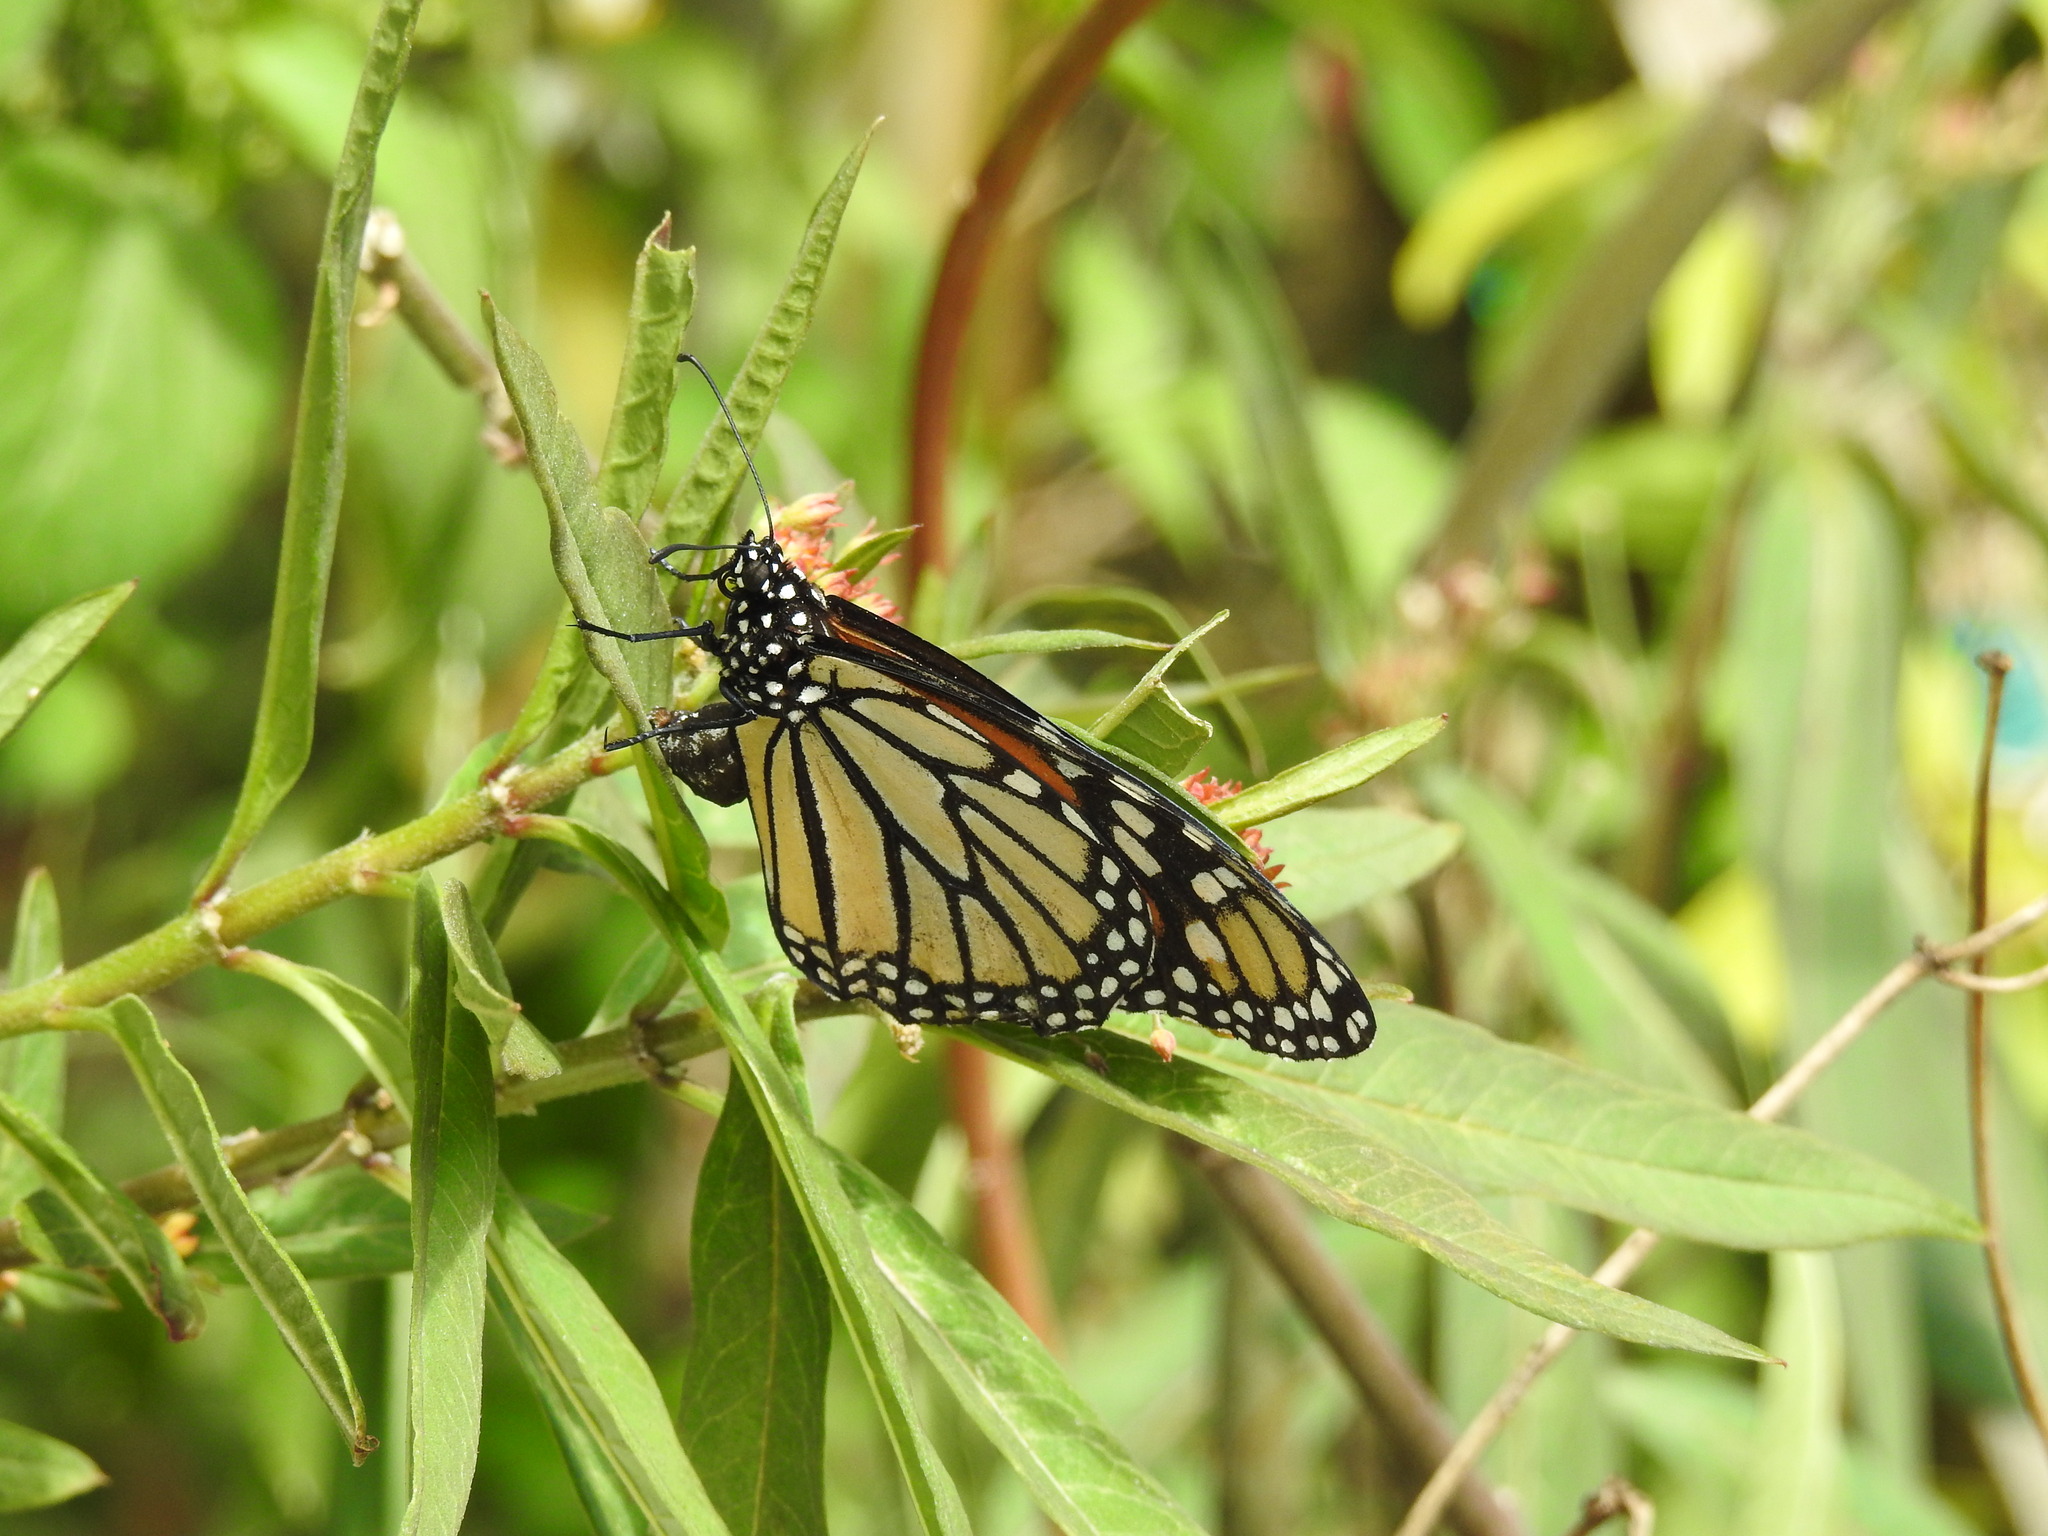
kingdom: Animalia
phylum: Arthropoda
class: Insecta
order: Lepidoptera
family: Nymphalidae
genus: Danaus
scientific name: Danaus plexippus
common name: Monarch
